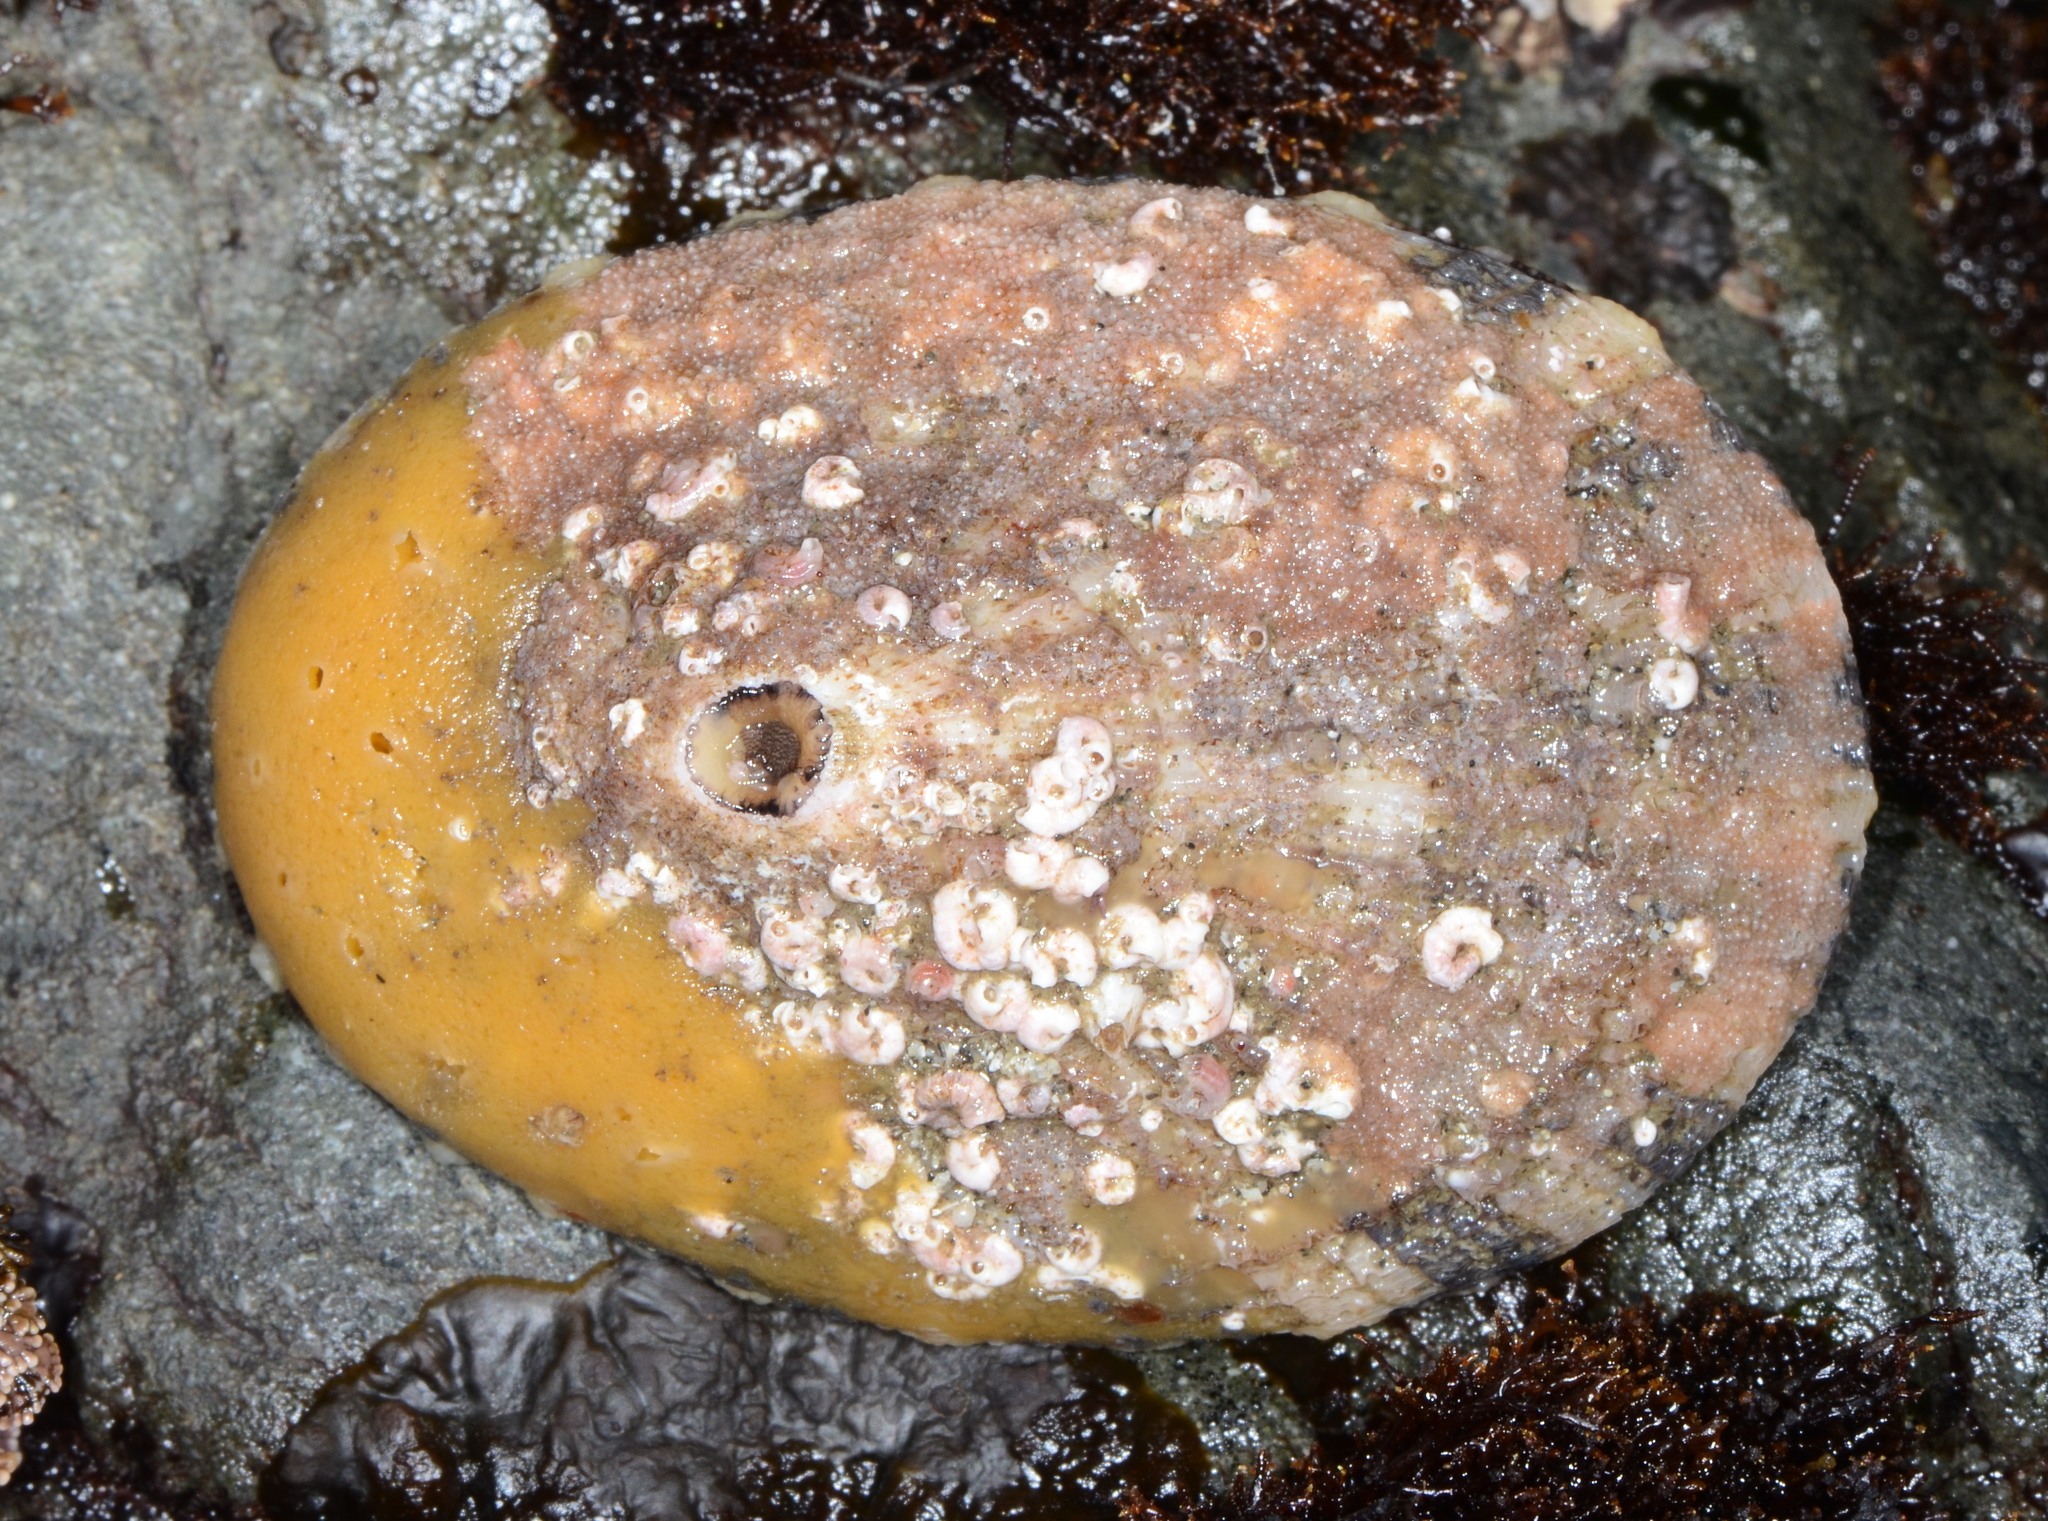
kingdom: Animalia
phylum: Mollusca
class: Gastropoda
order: Lepetellida
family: Fissurellidae
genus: Diodora
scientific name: Diodora aspera
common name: Rough keyhole limpet
